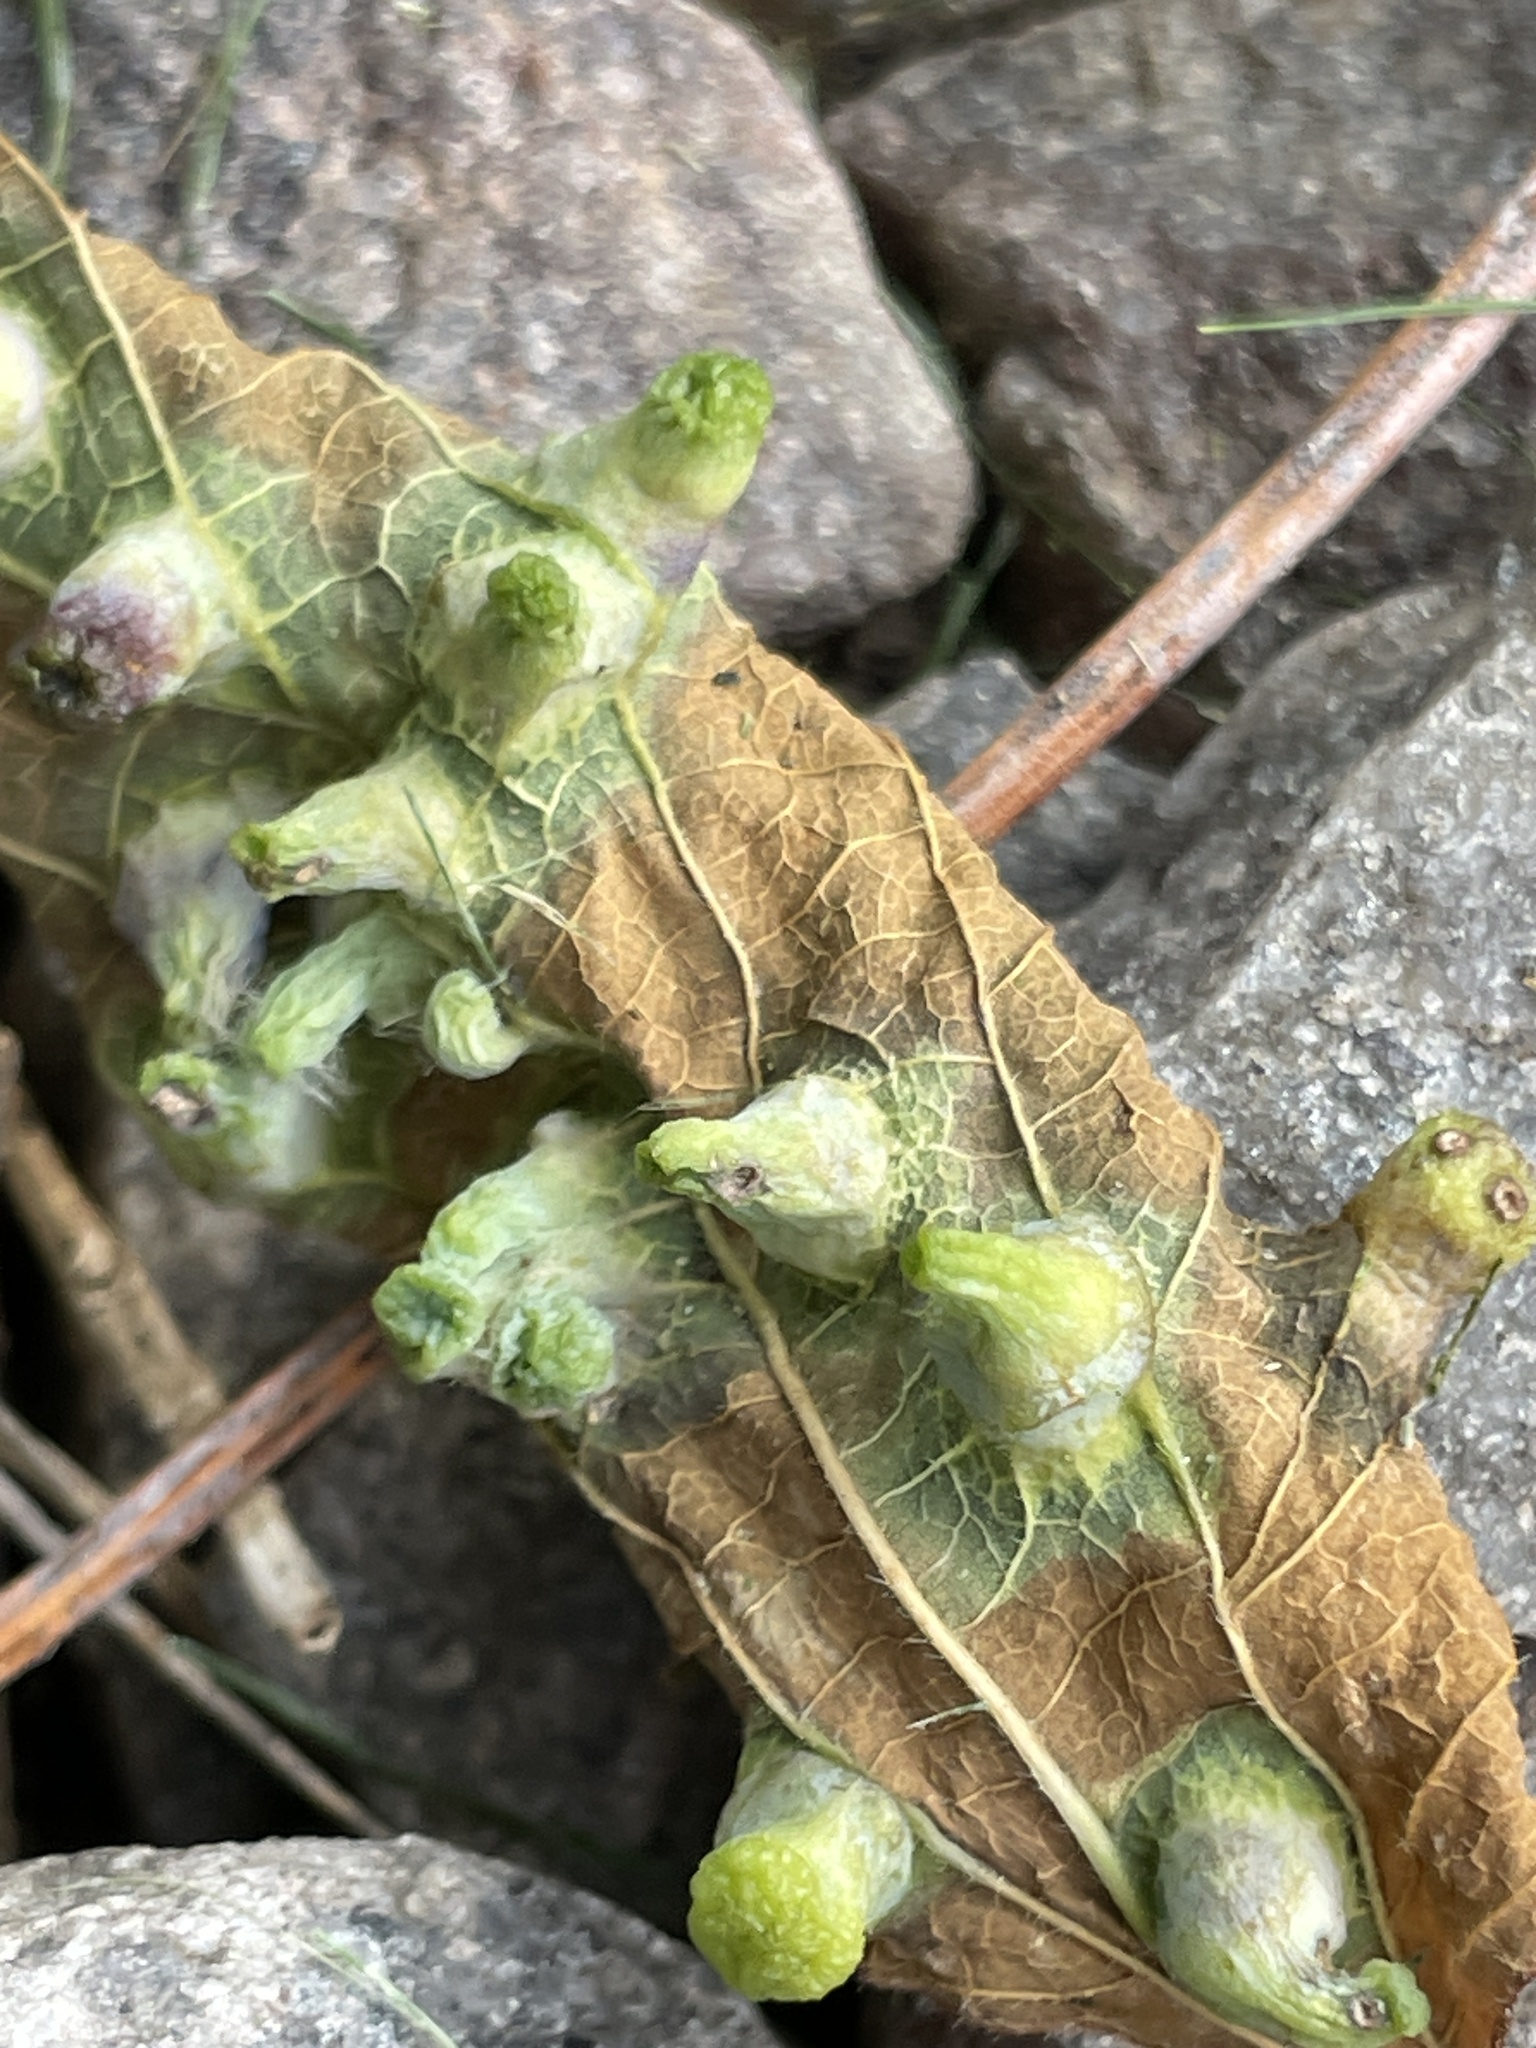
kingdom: Animalia
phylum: Arthropoda
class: Insecta
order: Hemiptera
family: Aphalaridae
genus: Pachypsylla
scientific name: Pachypsylla celtidismamma
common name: Hackberry nipplegall psyllid
